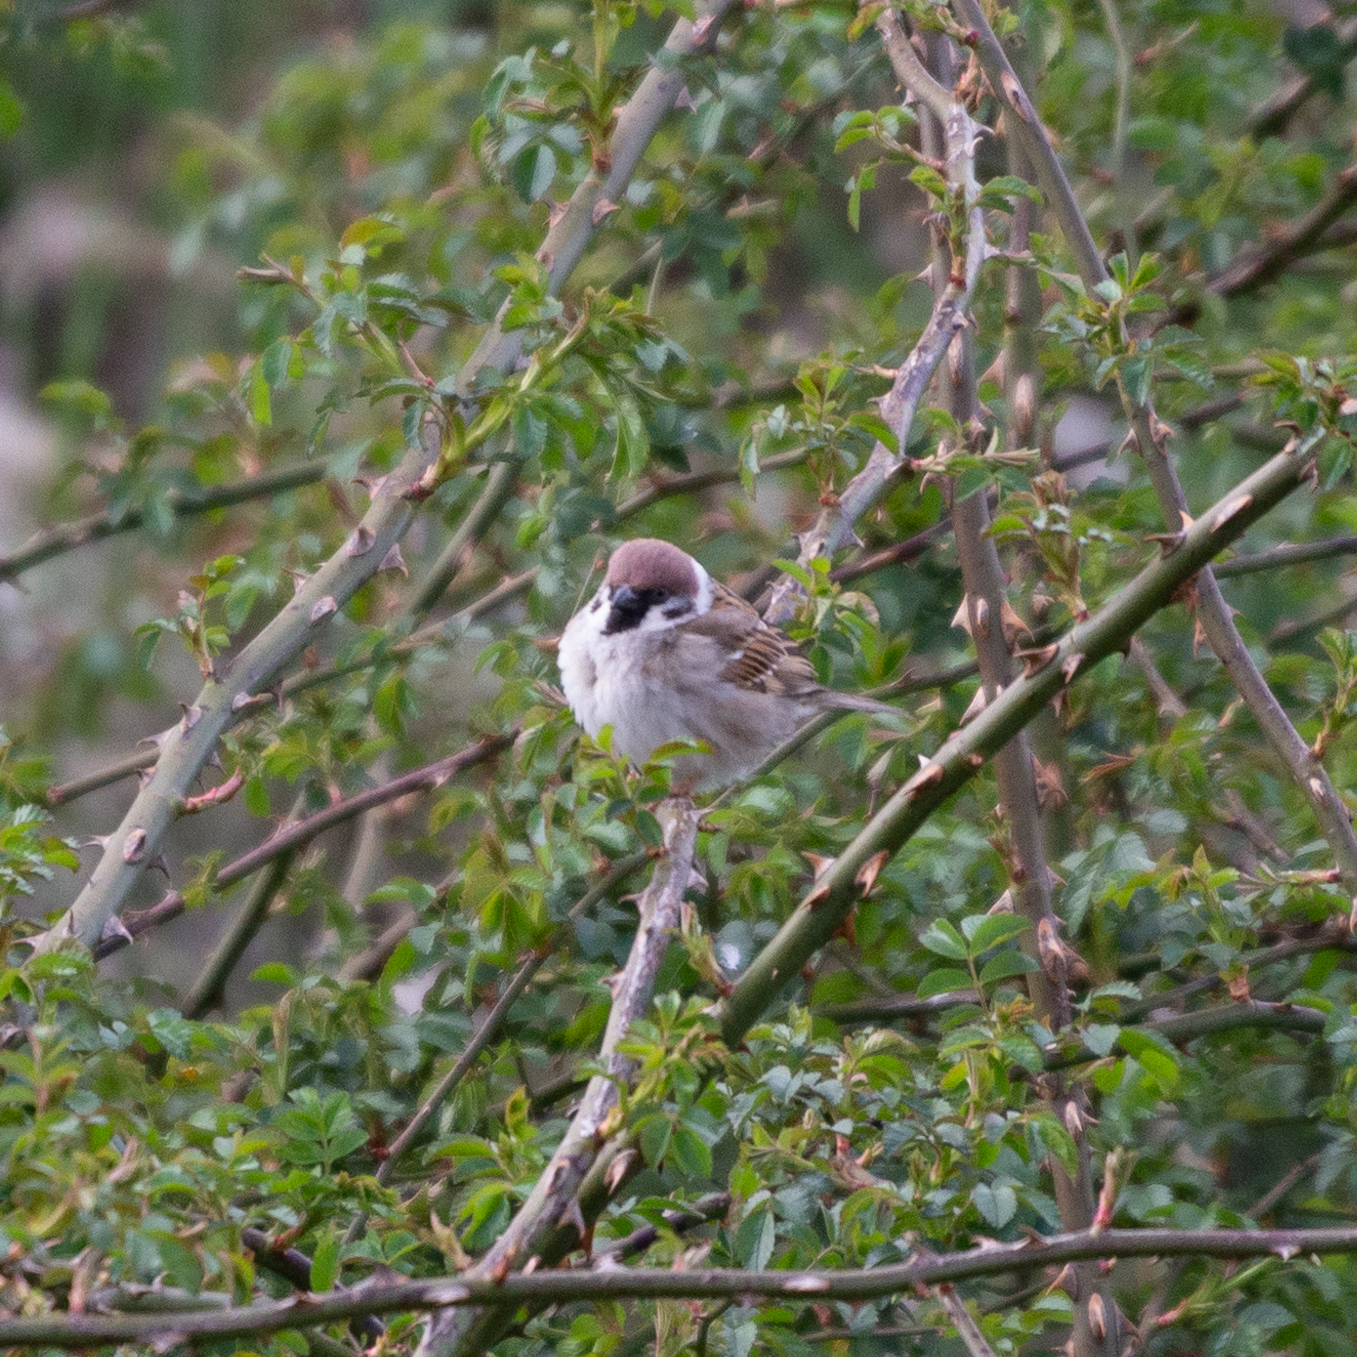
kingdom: Animalia
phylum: Chordata
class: Aves
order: Passeriformes
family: Passeridae
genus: Passer
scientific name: Passer montanus
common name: Eurasian tree sparrow
